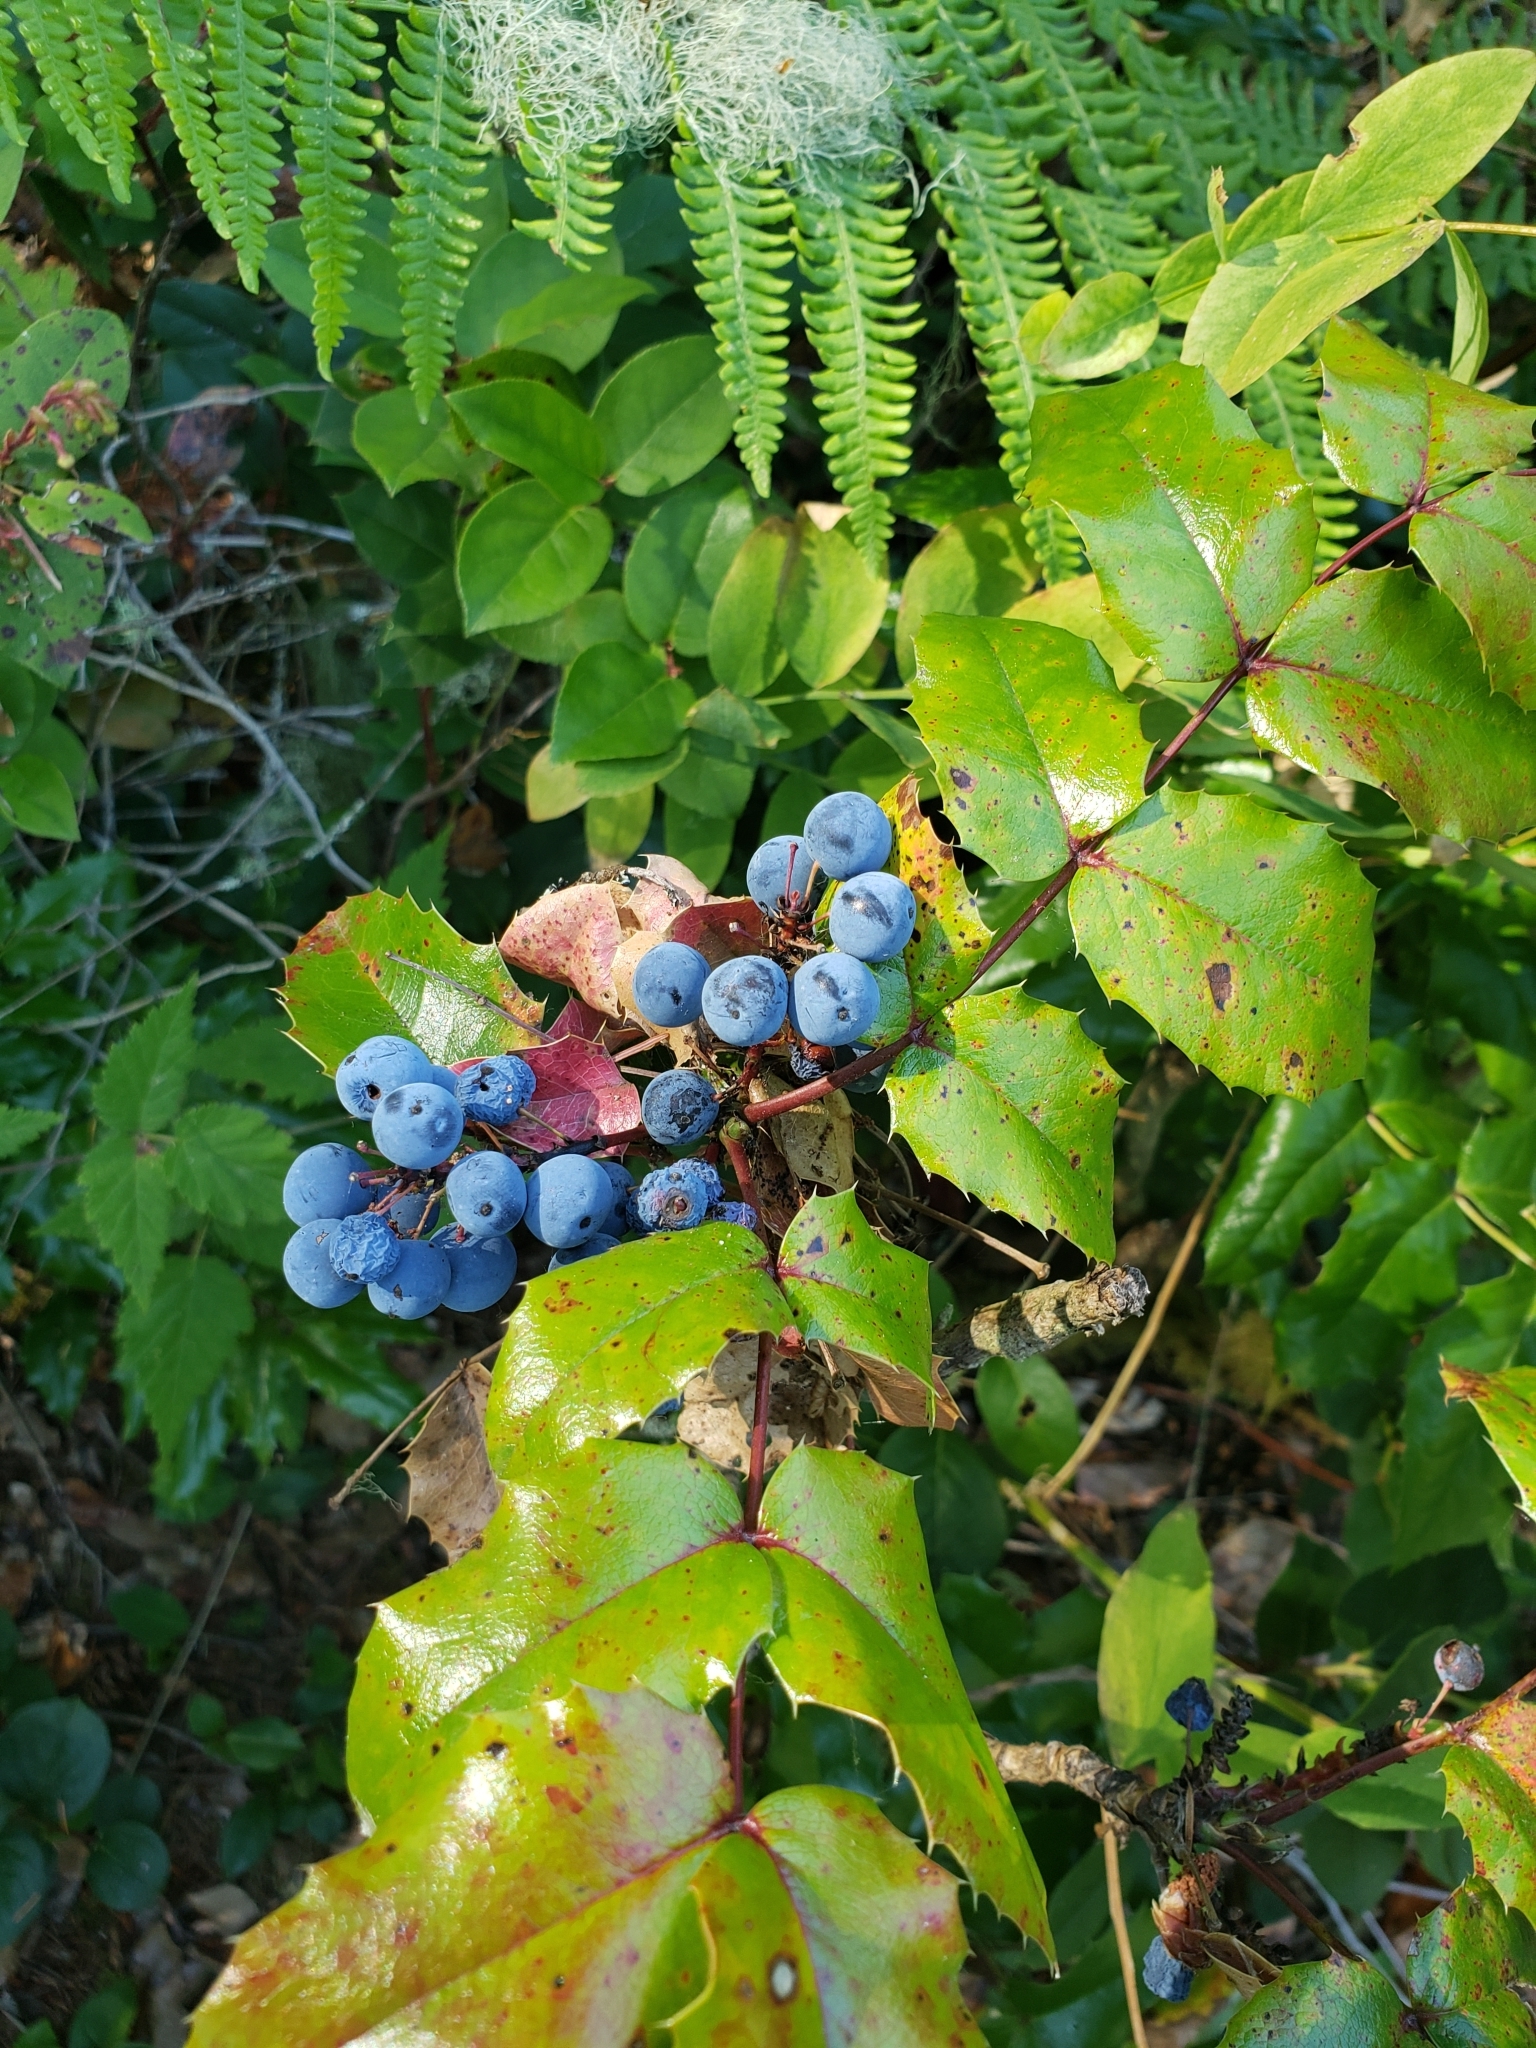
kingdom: Plantae
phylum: Tracheophyta
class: Magnoliopsida
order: Ranunculales
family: Berberidaceae
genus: Mahonia
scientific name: Mahonia aquifolium
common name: Oregon-grape
